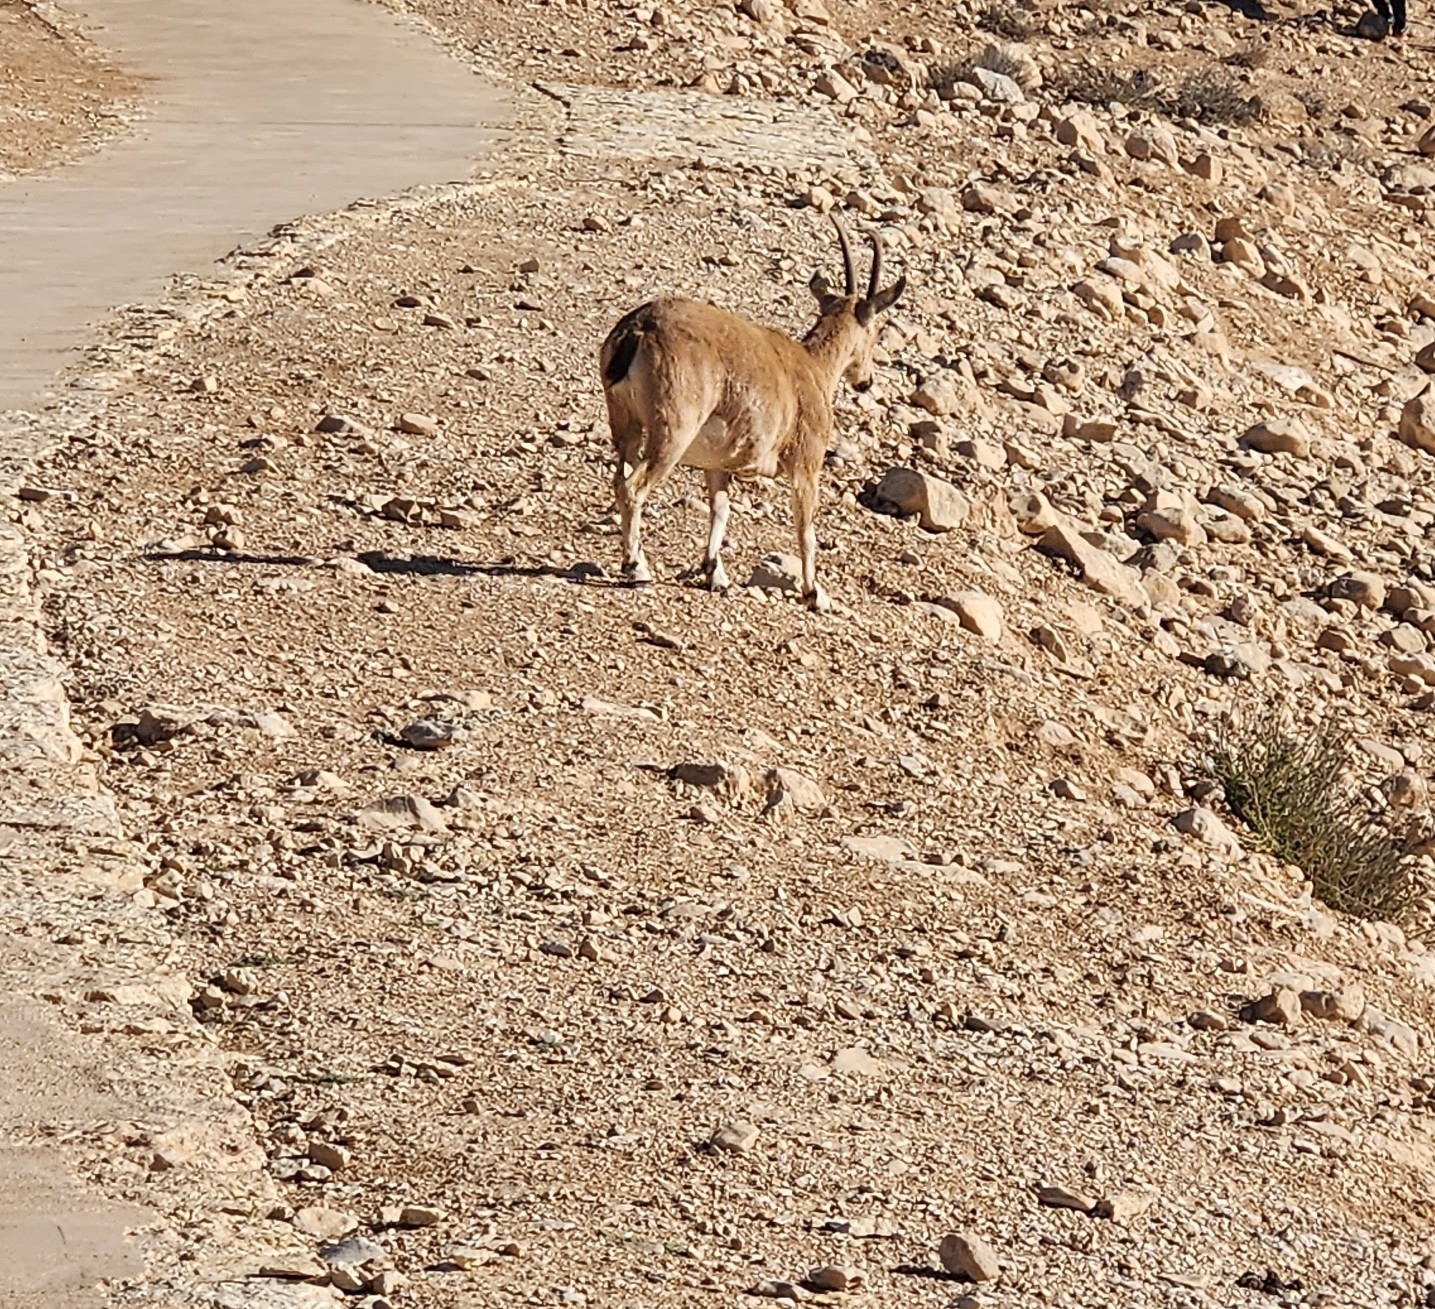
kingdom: Animalia
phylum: Chordata
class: Mammalia
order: Artiodactyla
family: Bovidae
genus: Capra
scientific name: Capra nubiana
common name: Nubian ibex
